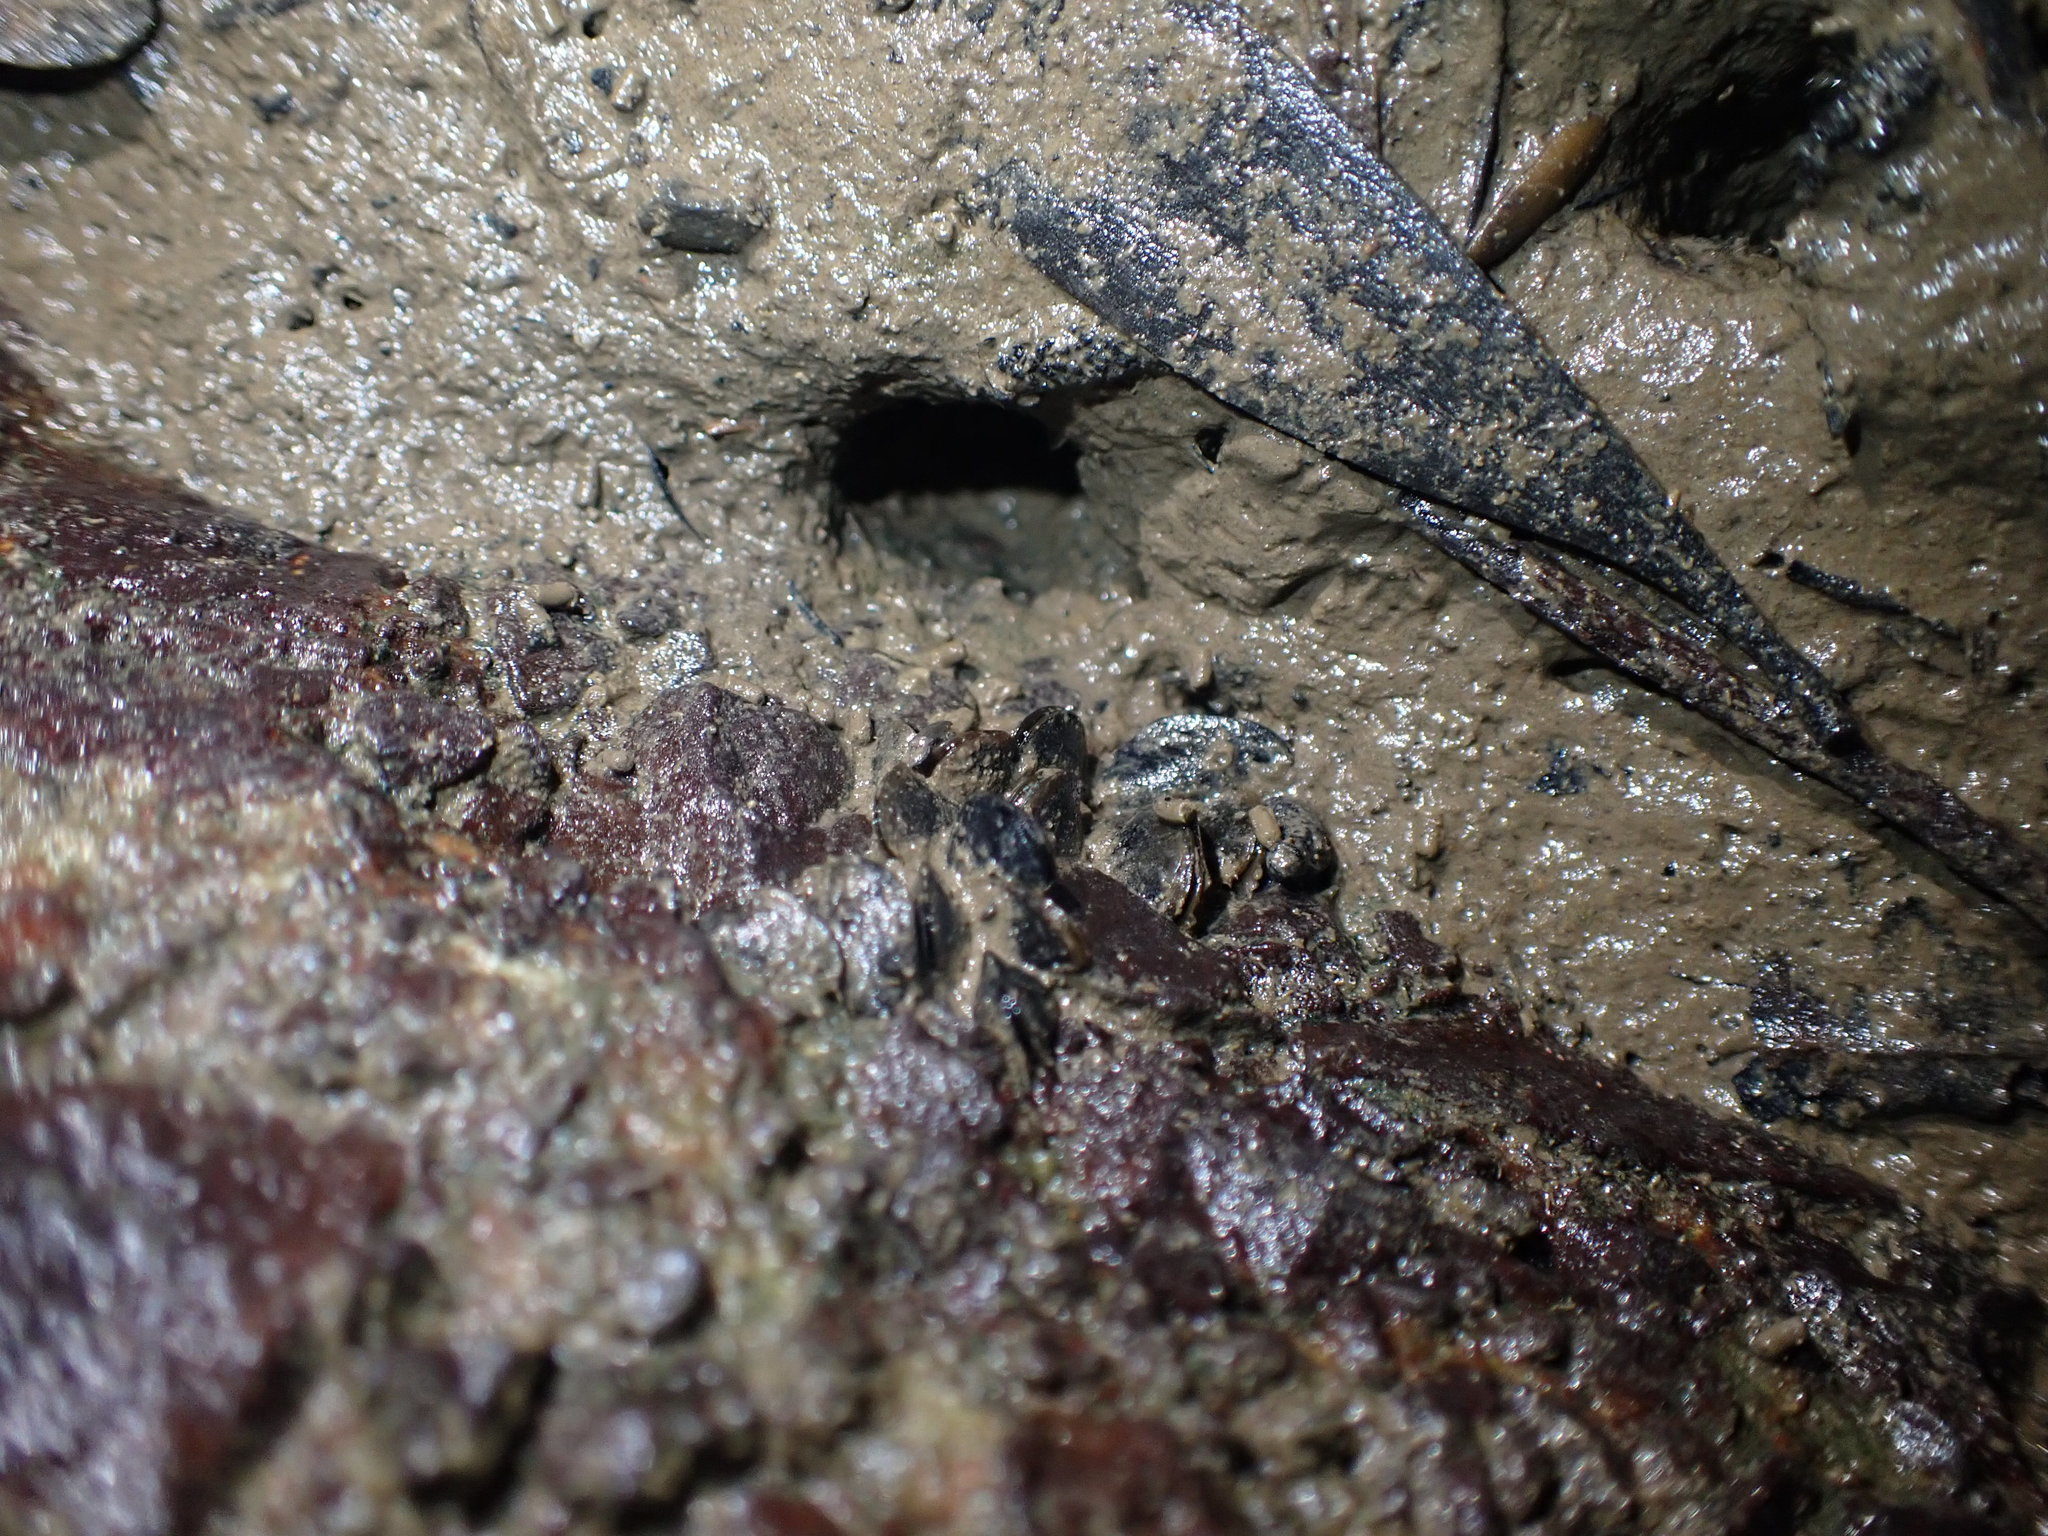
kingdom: Animalia
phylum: Mollusca
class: Bivalvia
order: Mytilida
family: Mytilidae
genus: Xenostrobus
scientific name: Xenostrobus securis
